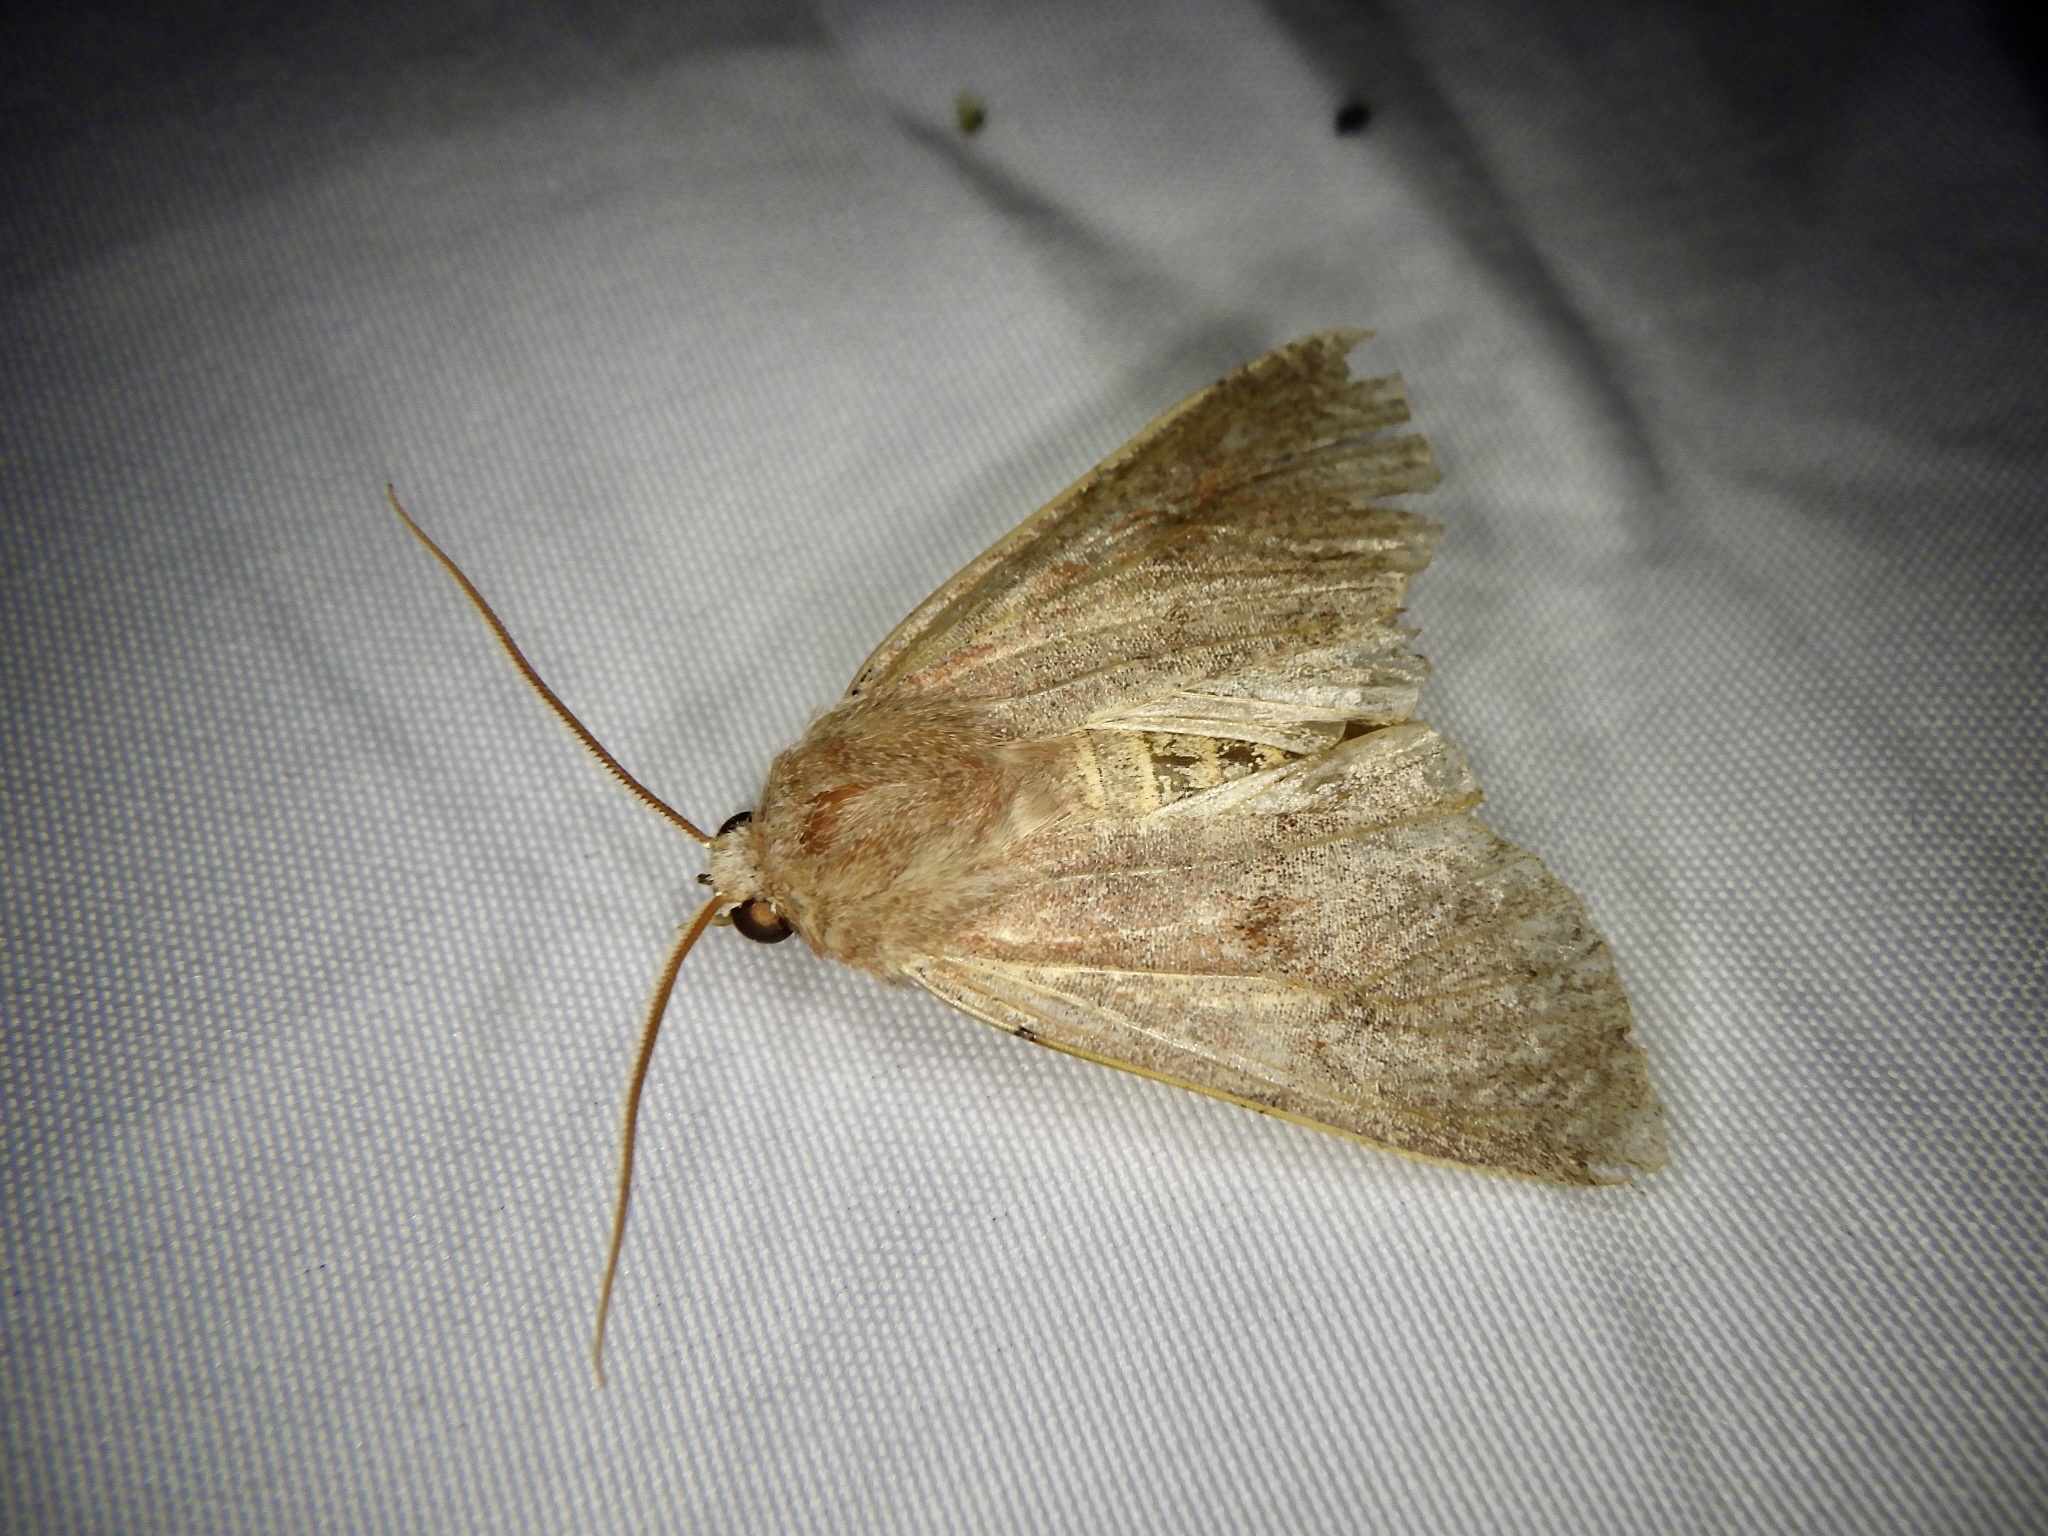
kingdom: Animalia
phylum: Arthropoda
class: Insecta
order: Lepidoptera
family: Noctuidae
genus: Conistra
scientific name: Conistra albipuncta
